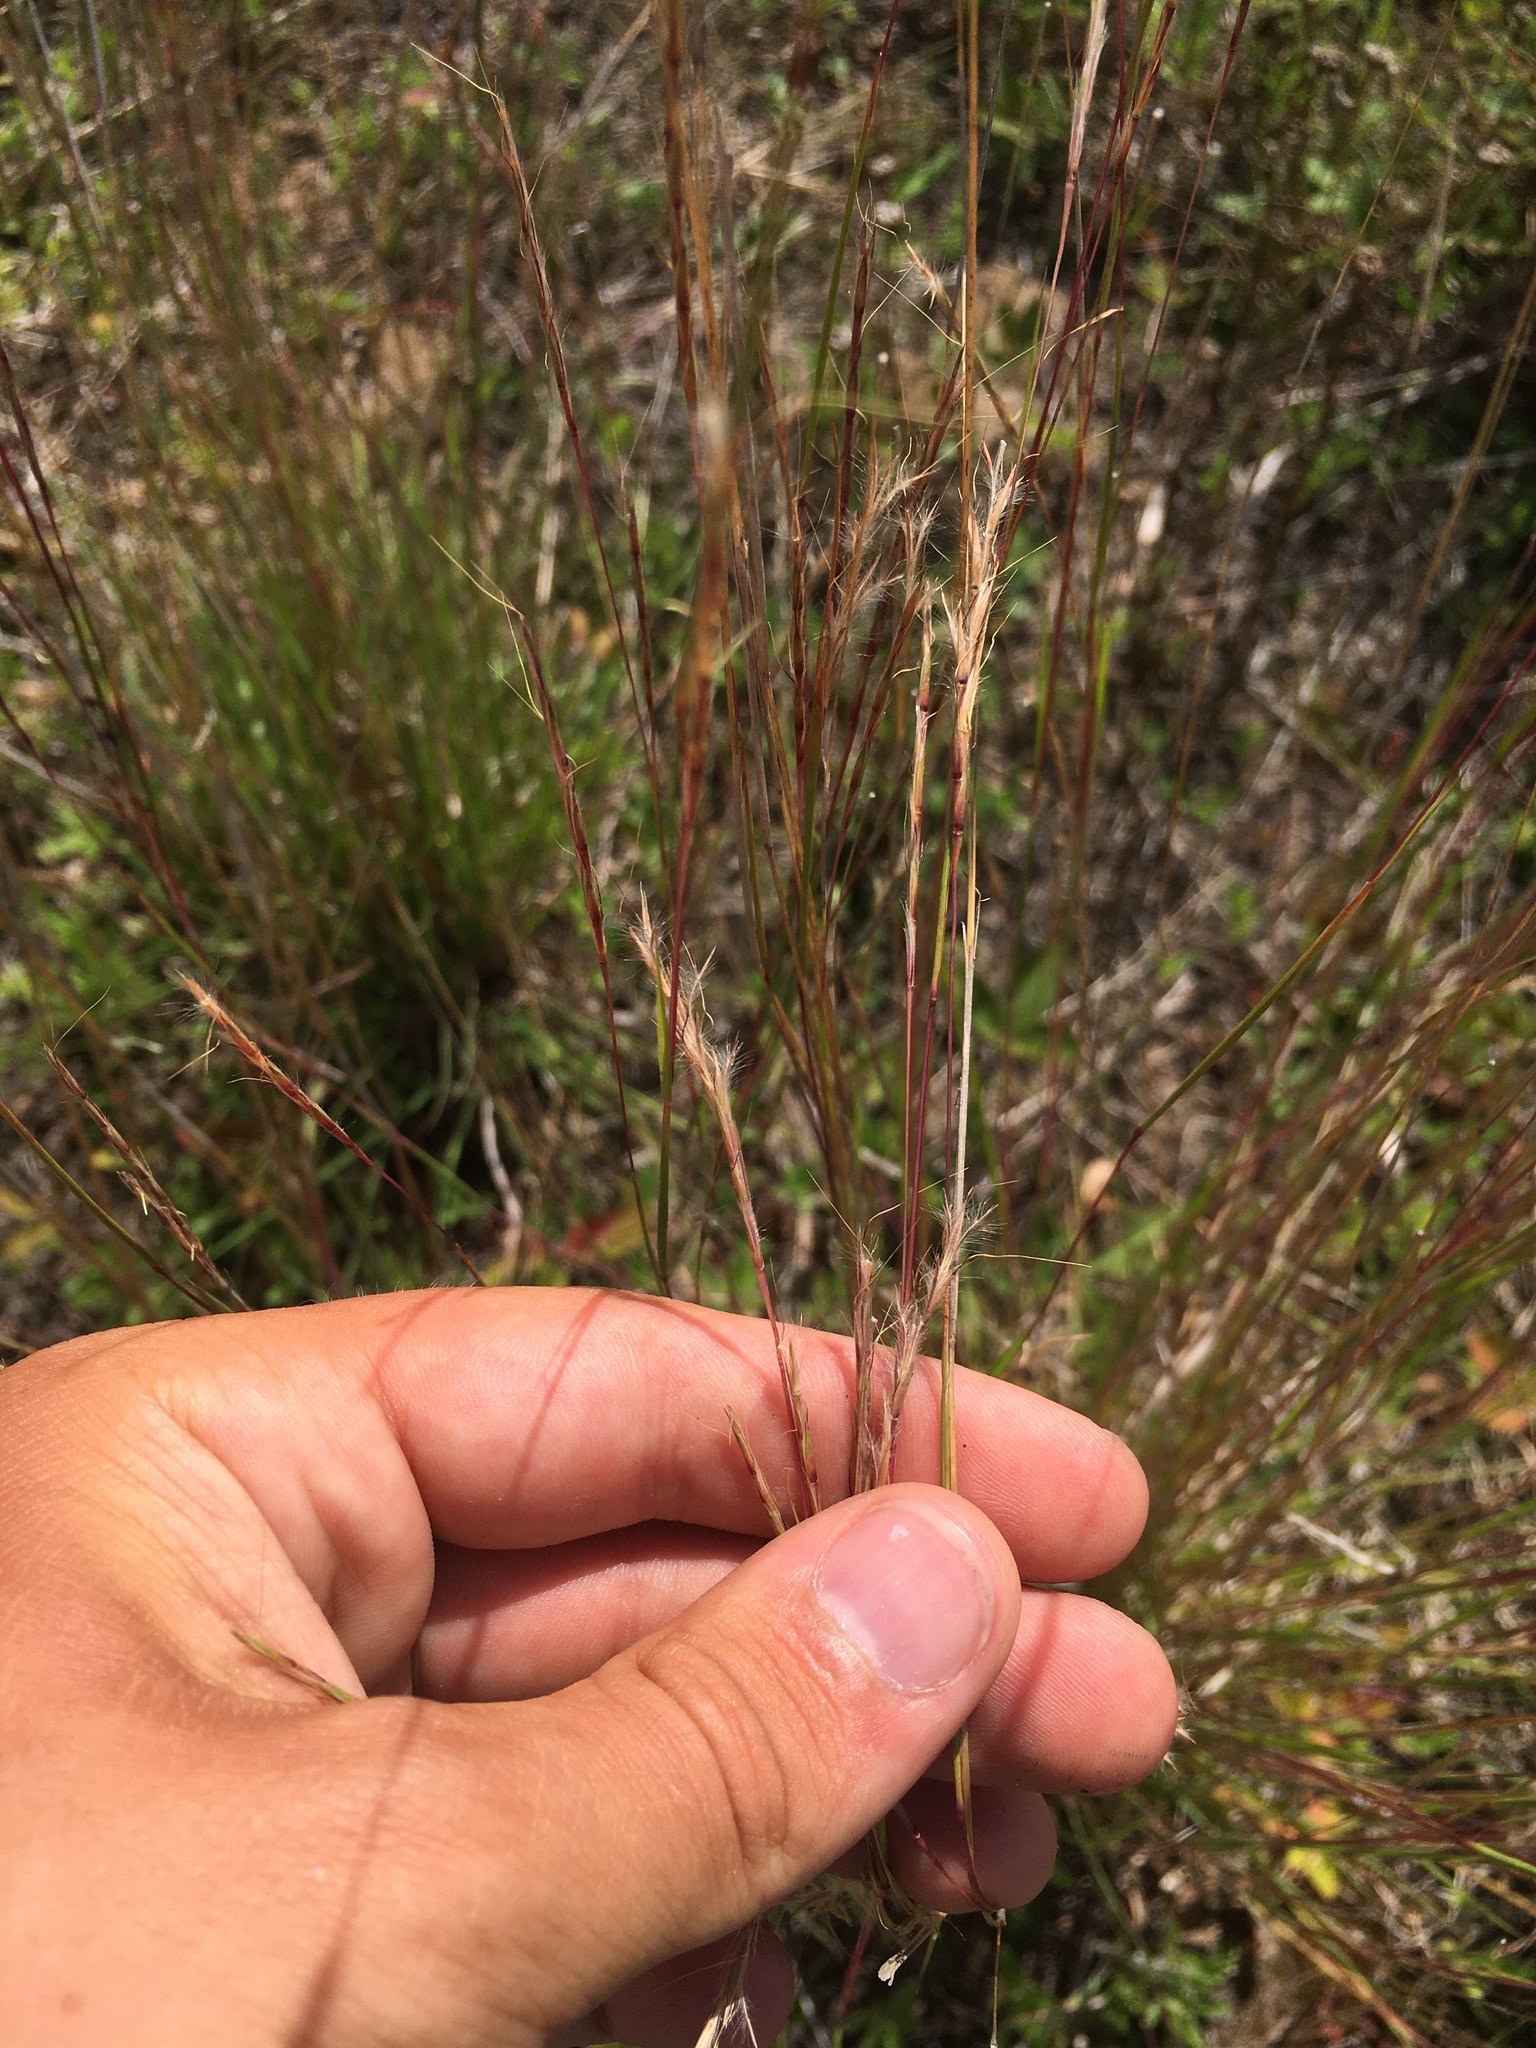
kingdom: Plantae
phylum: Tracheophyta
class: Liliopsida
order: Poales
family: Poaceae
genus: Schizachyrium
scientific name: Schizachyrium scoparium
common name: Little bluestem
